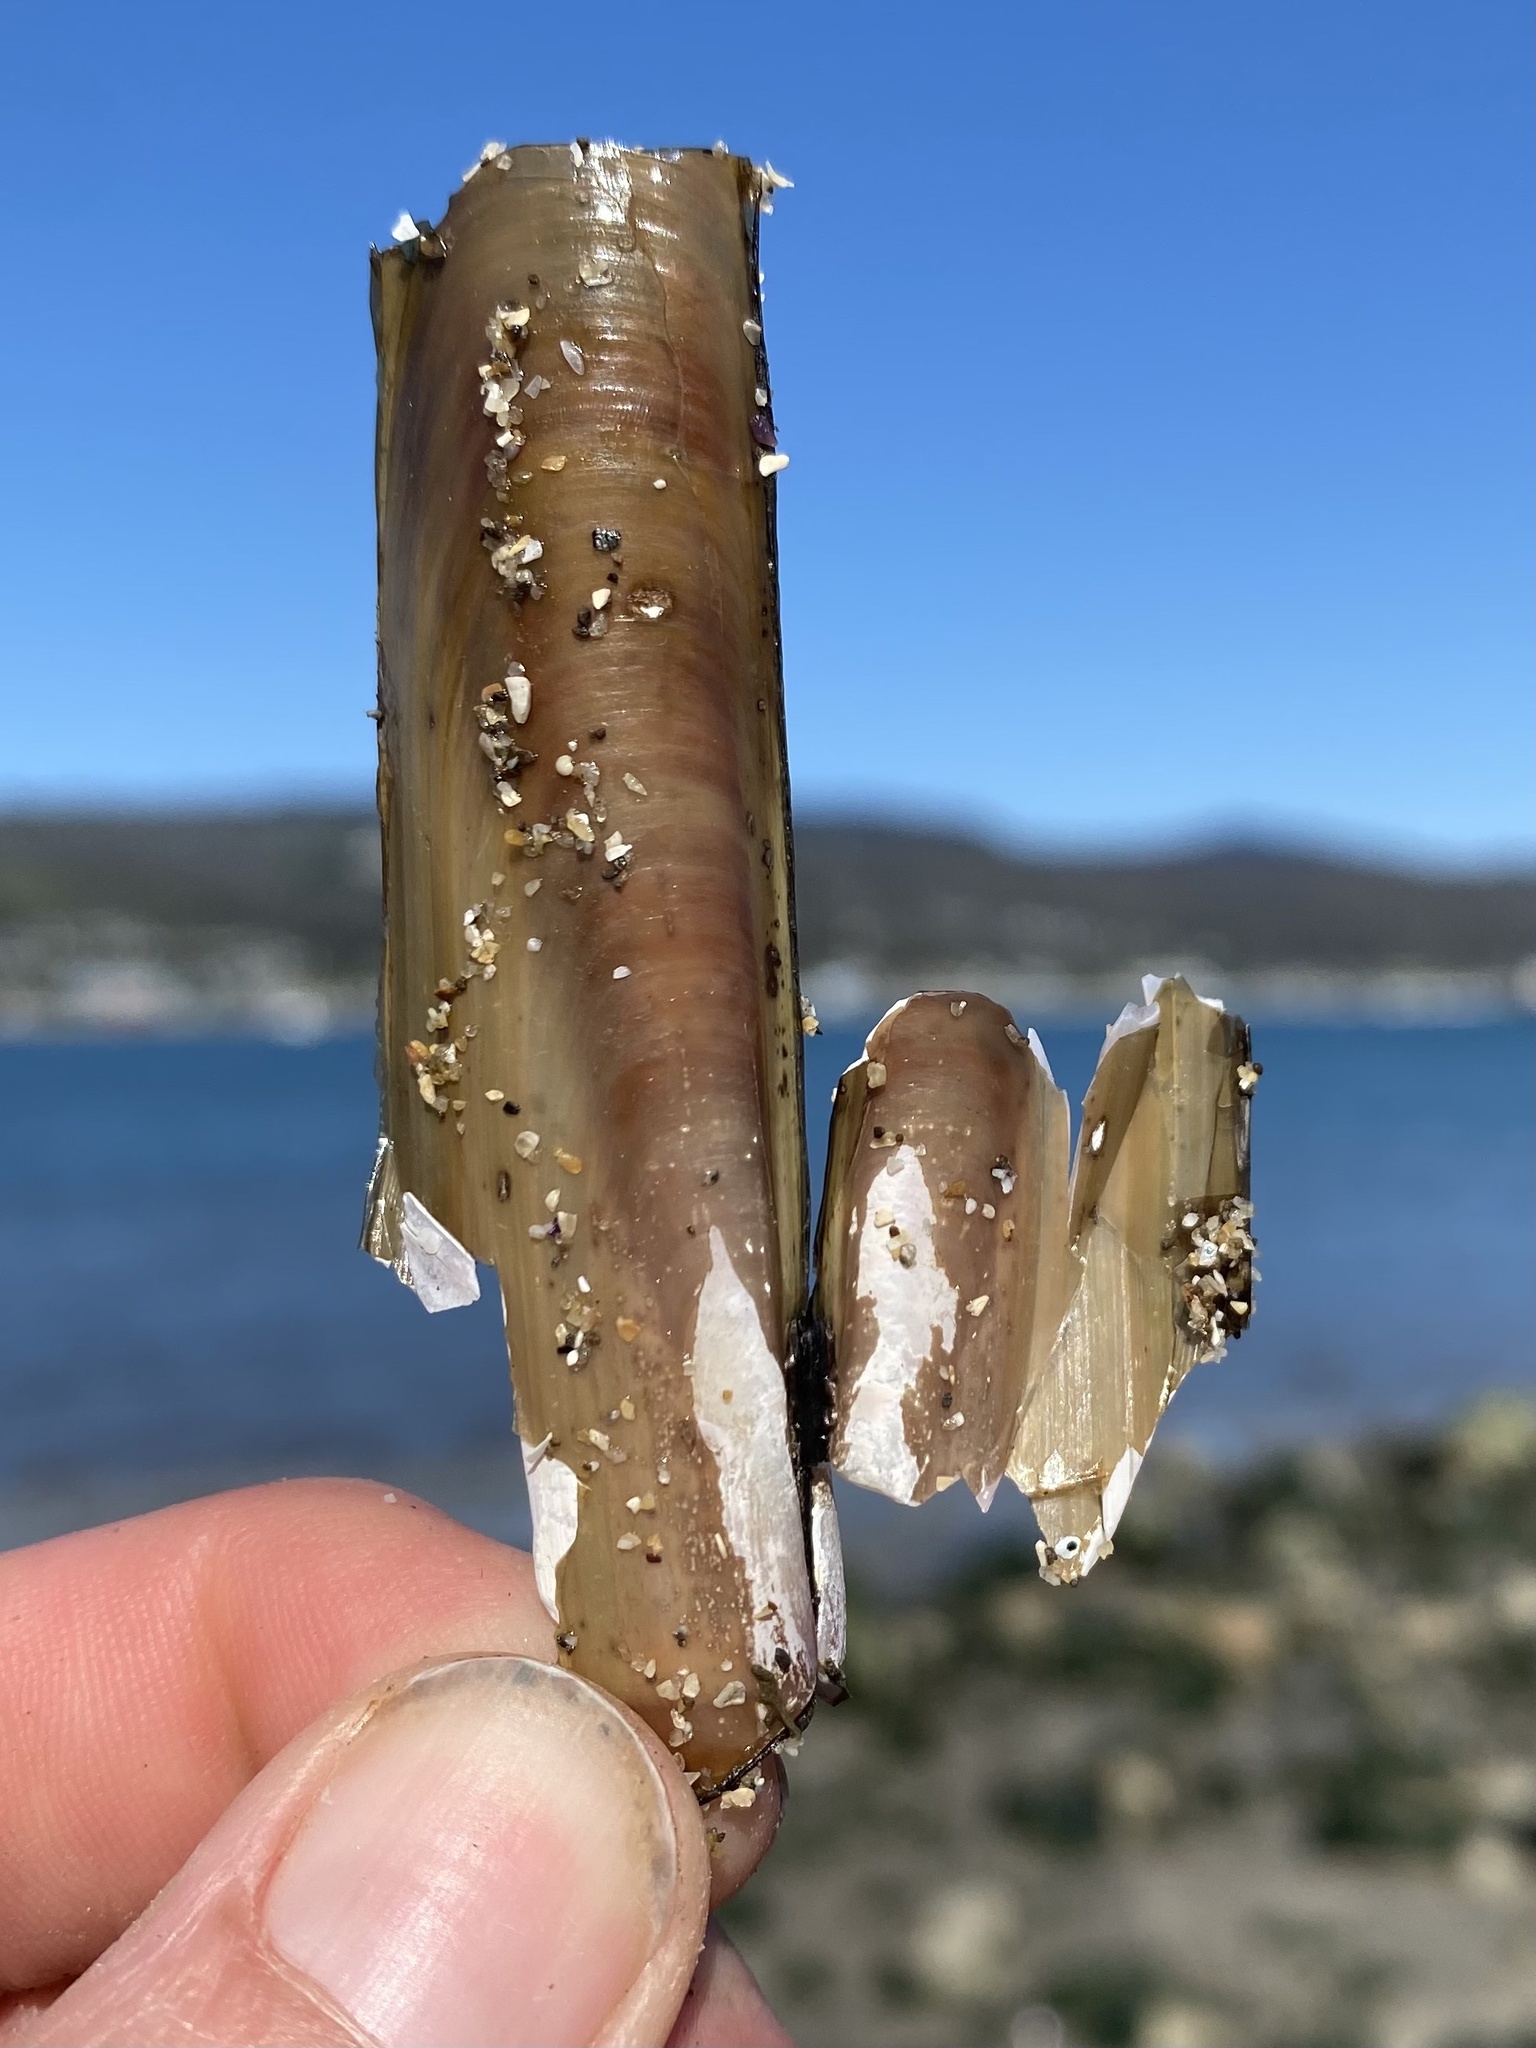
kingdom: Animalia
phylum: Mollusca
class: Bivalvia
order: Adapedonta
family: Solenidae
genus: Solen
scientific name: Solen sicarius
